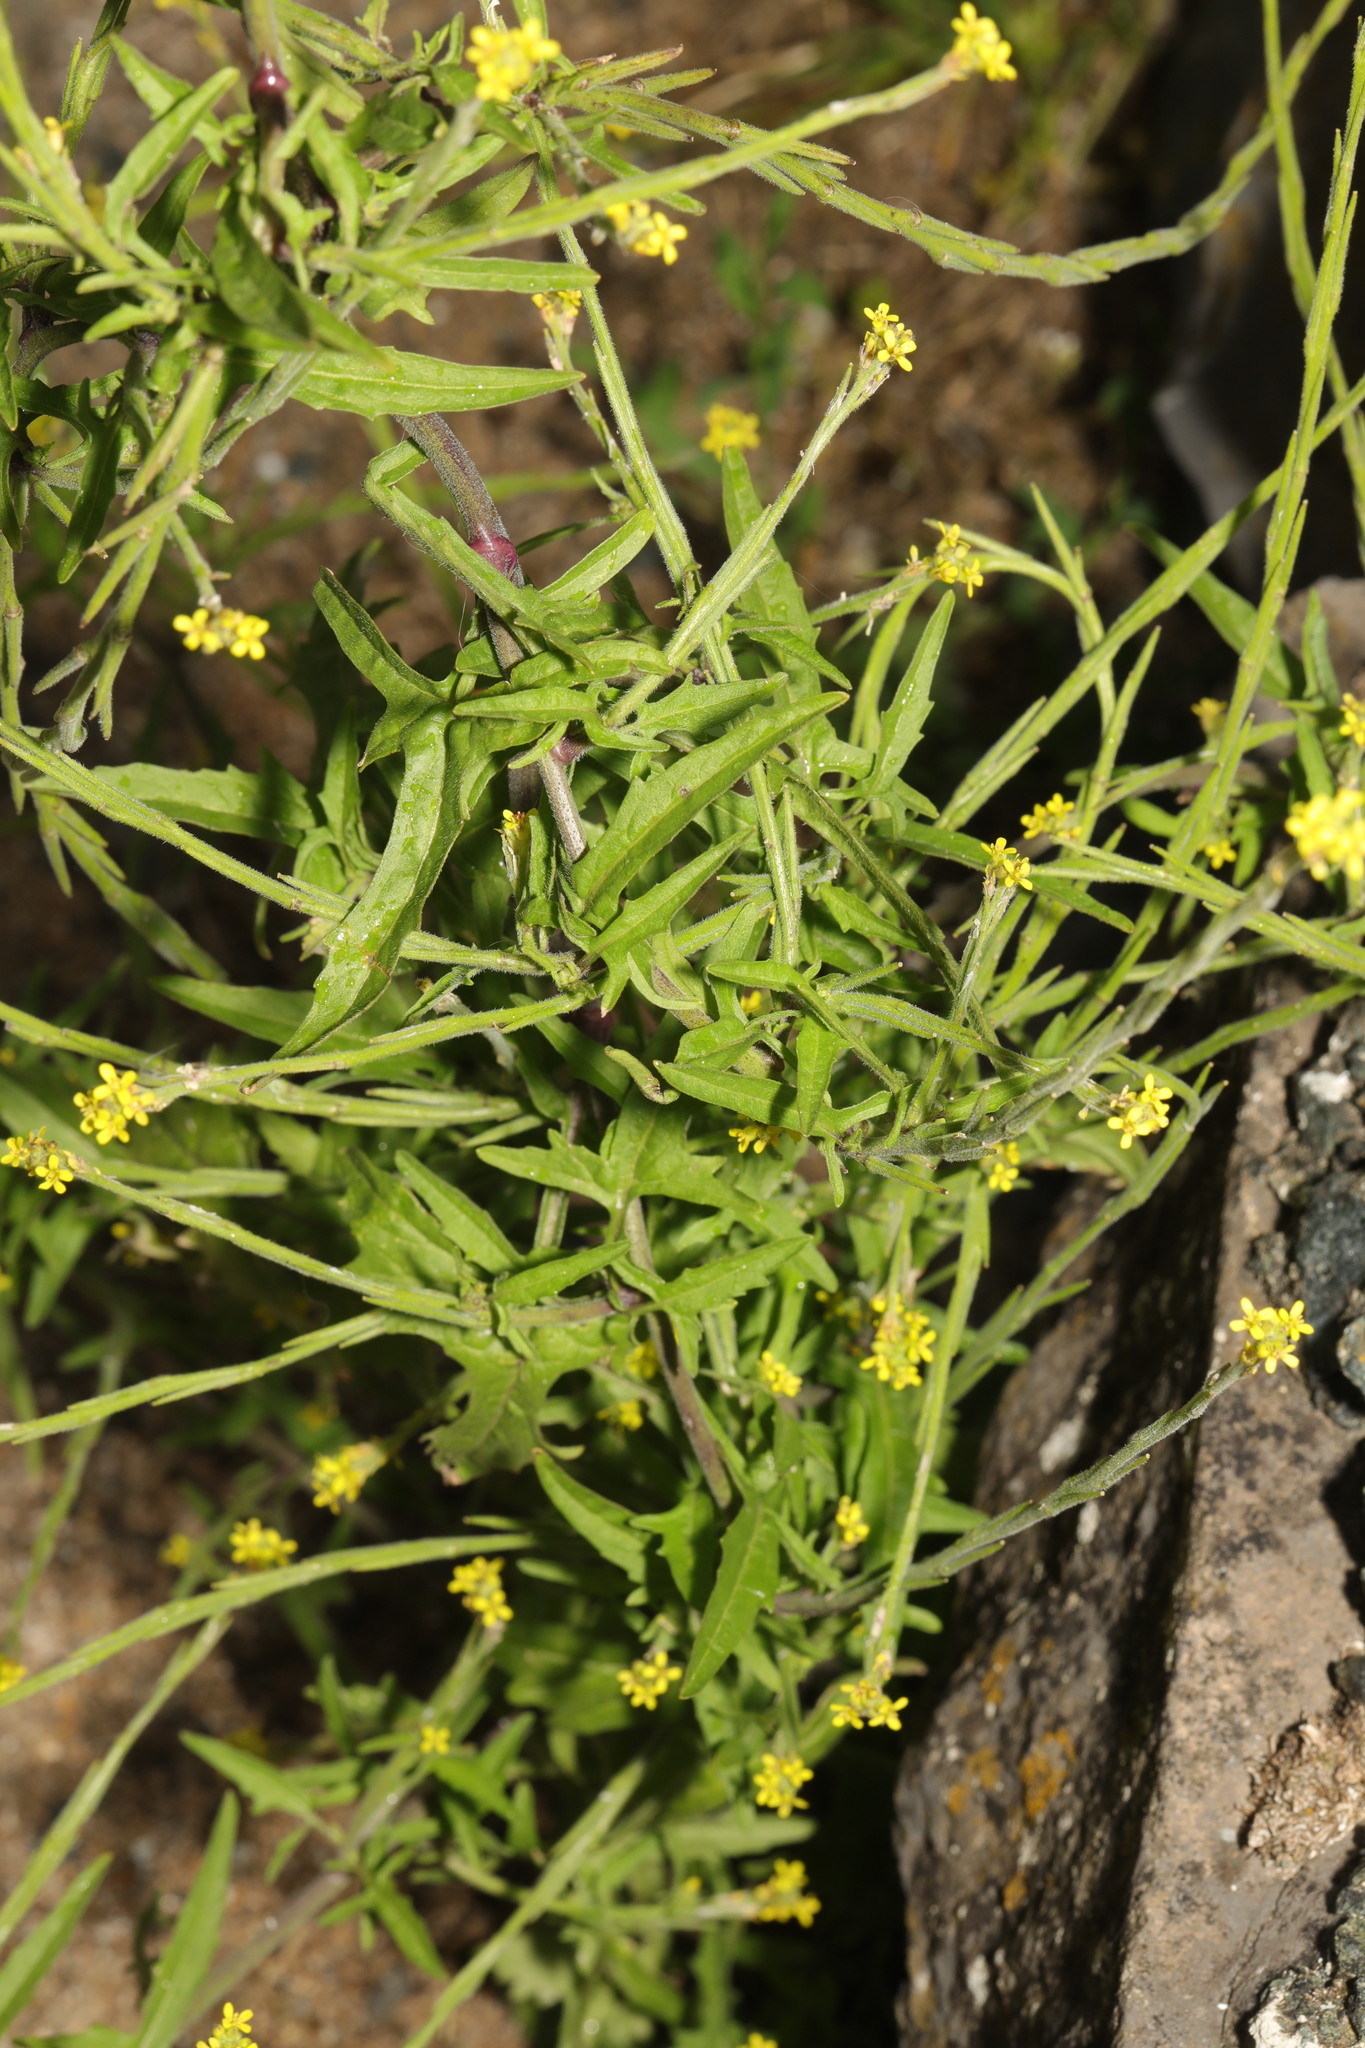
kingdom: Plantae
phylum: Tracheophyta
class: Magnoliopsida
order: Brassicales
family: Brassicaceae
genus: Sisymbrium
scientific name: Sisymbrium officinale
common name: Hedge mustard
